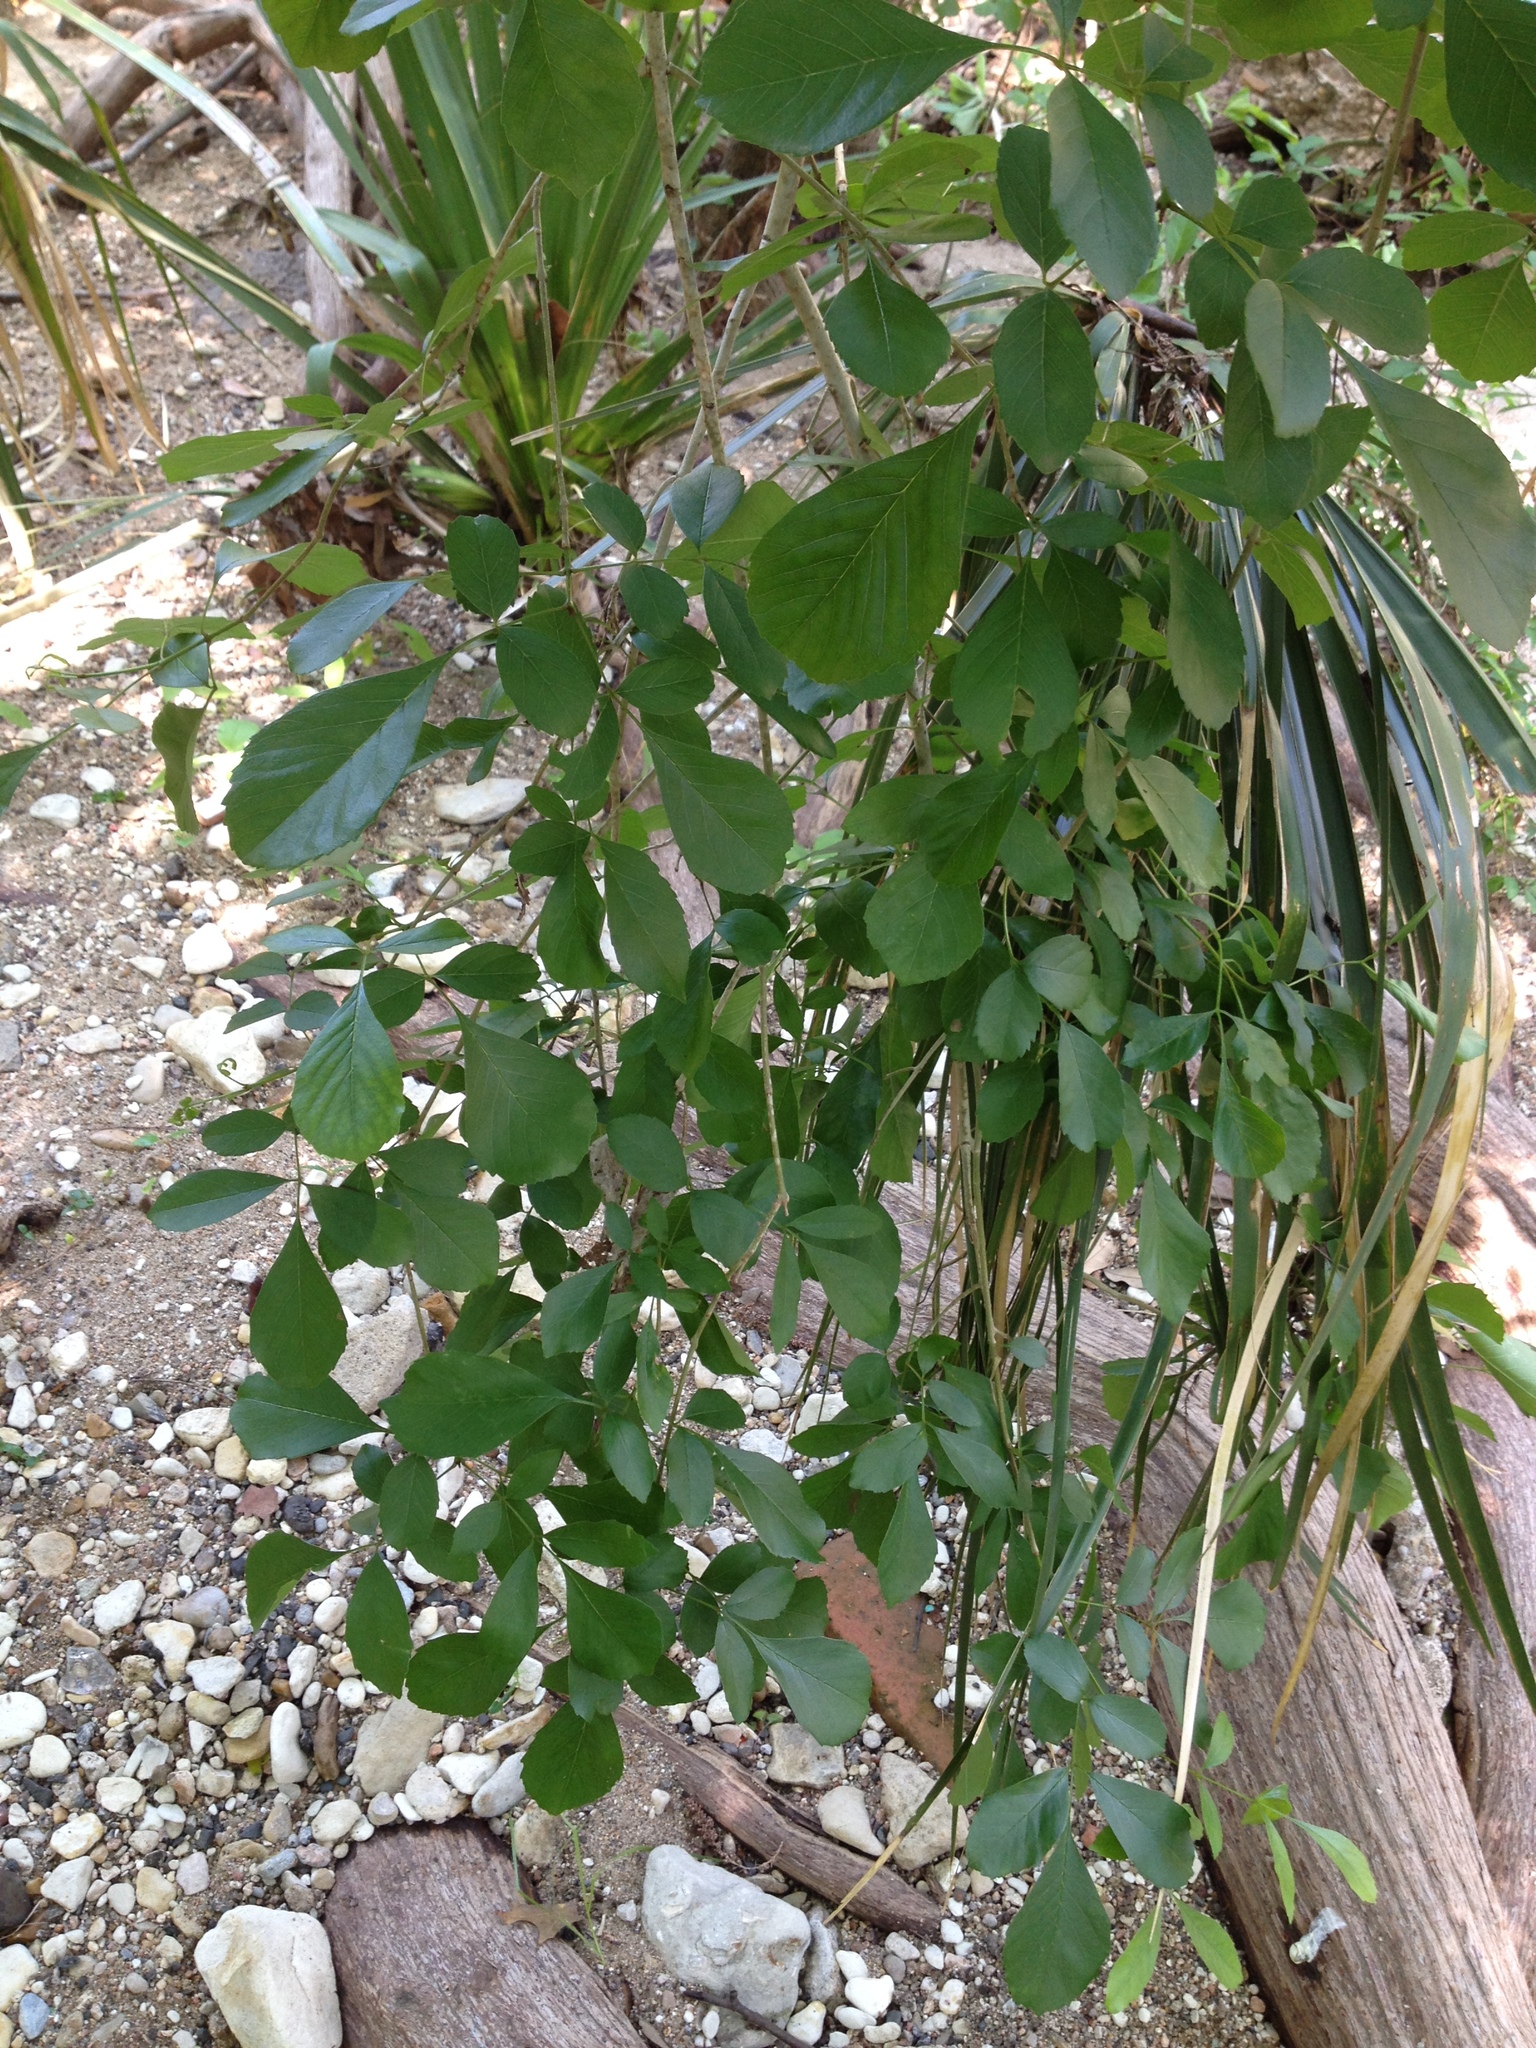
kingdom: Plantae
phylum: Tracheophyta
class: Magnoliopsida
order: Sapindales
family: Rutaceae
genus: Ptelea
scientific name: Ptelea trifoliata
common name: Common hop-tree
